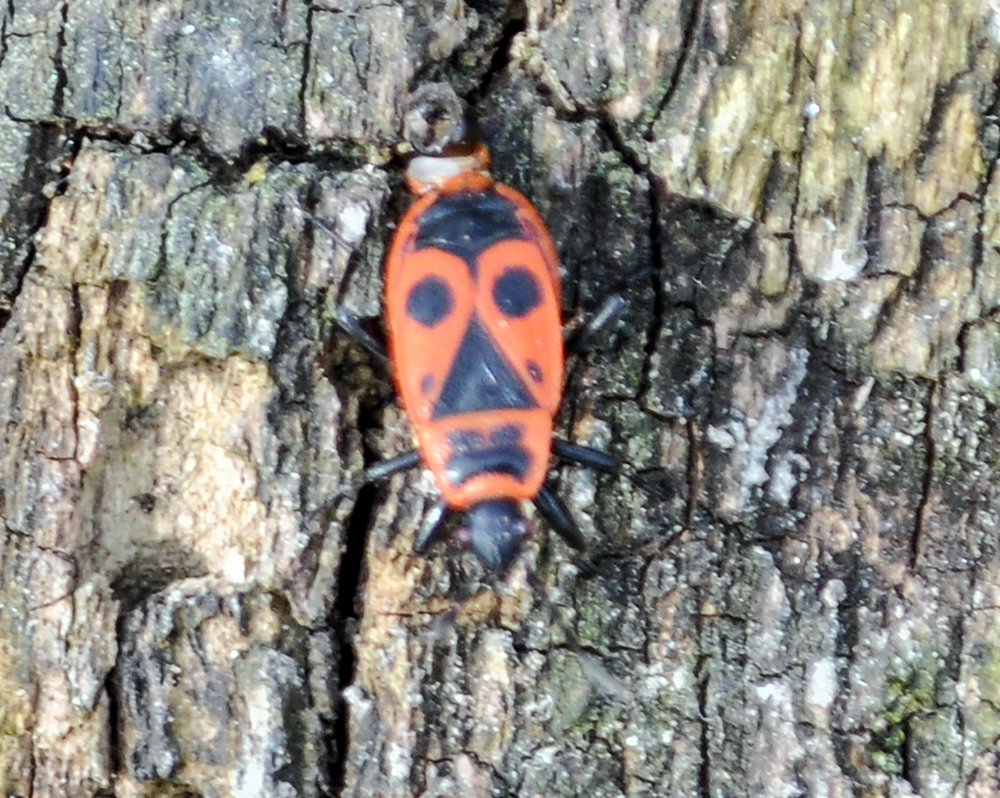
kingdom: Animalia
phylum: Arthropoda
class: Insecta
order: Hemiptera
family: Pyrrhocoridae
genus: Pyrrhocoris
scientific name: Pyrrhocoris apterus
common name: Firebug
